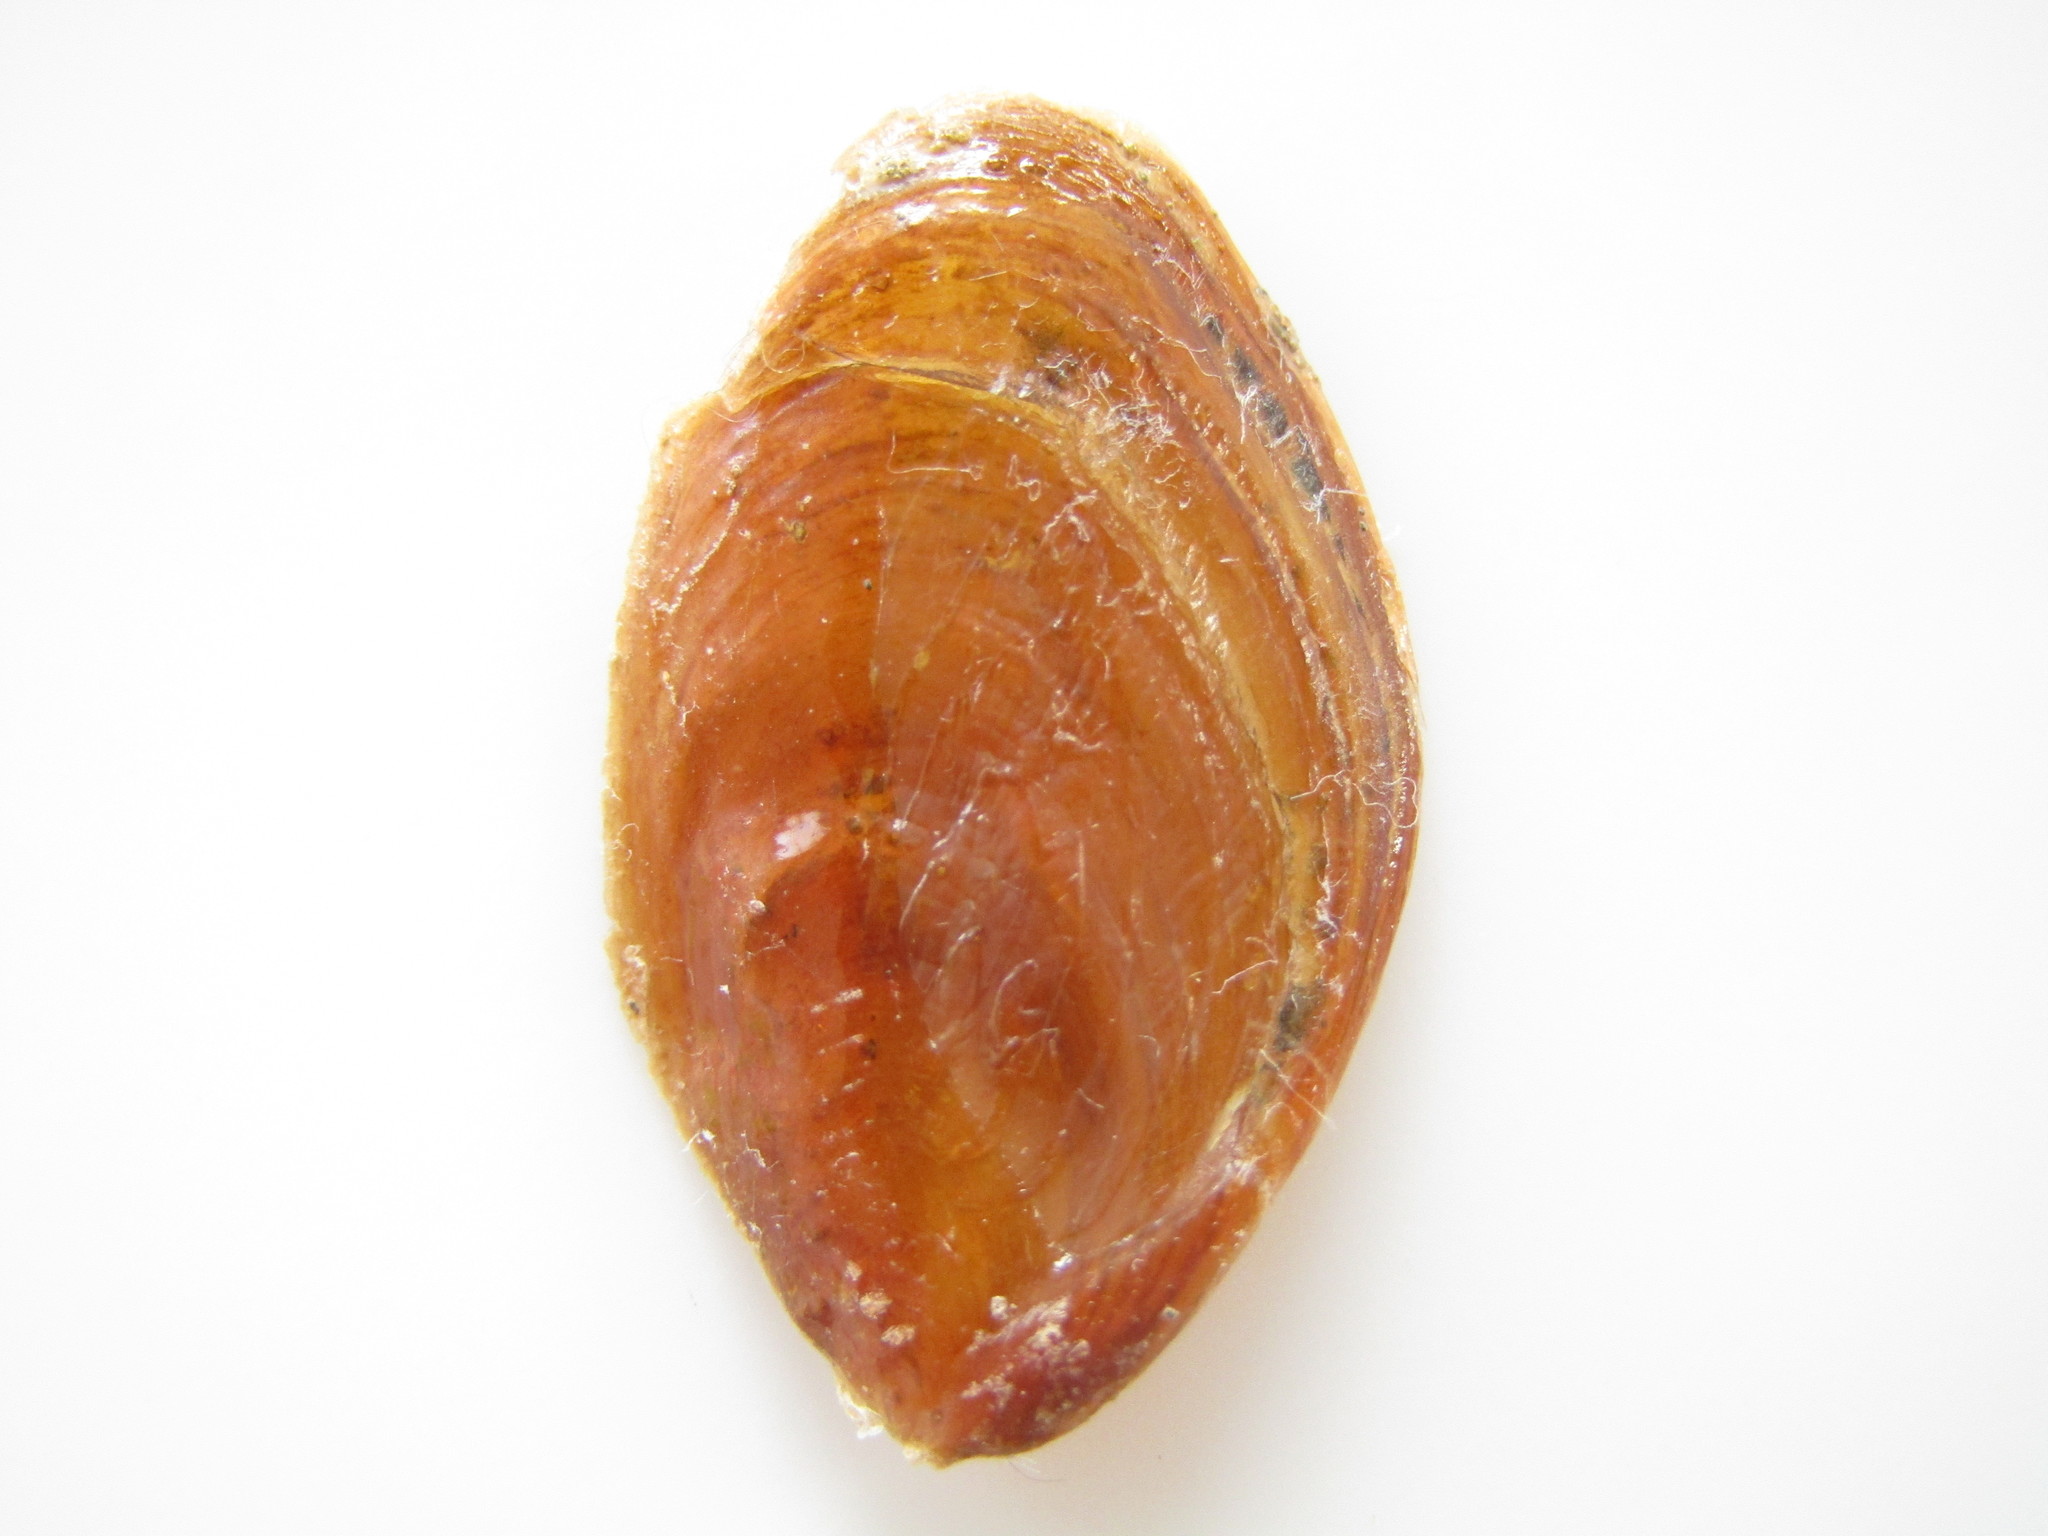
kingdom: Animalia
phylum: Mollusca
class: Gastropoda
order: Littorinimorpha
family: Cymatiidae
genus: Monoplex
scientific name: Monoplex parthenopeus
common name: Giant triton
